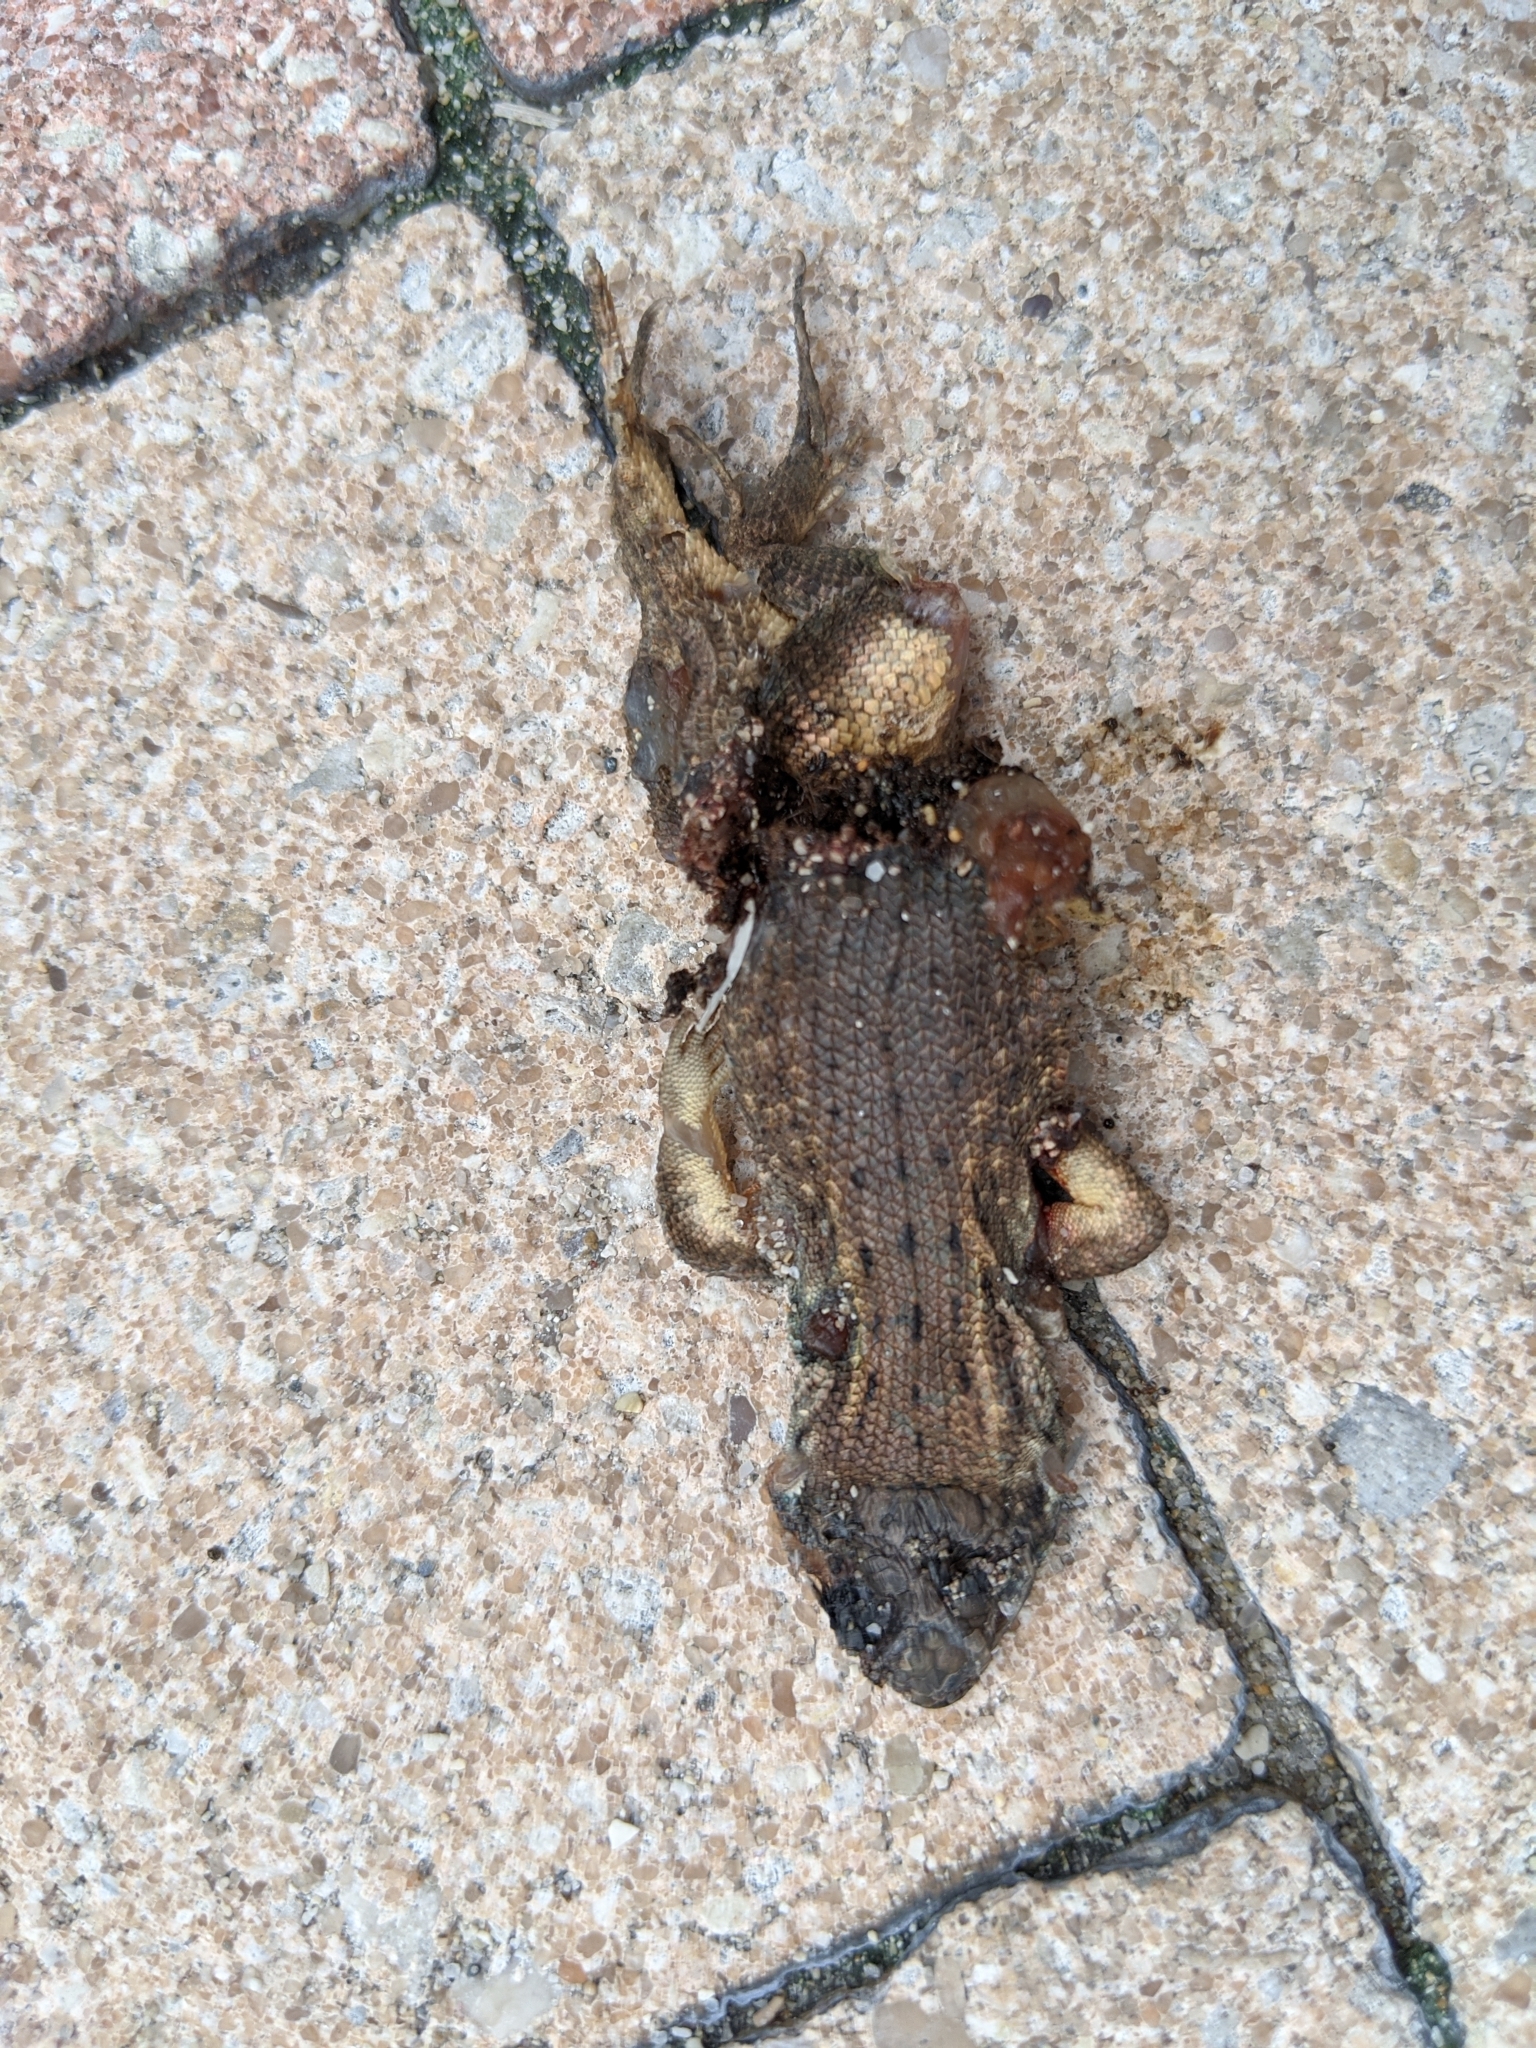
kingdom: Animalia
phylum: Chordata
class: Squamata
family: Leiocephalidae
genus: Leiocephalus
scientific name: Leiocephalus carinatus
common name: Northern curly-tailed lizard
